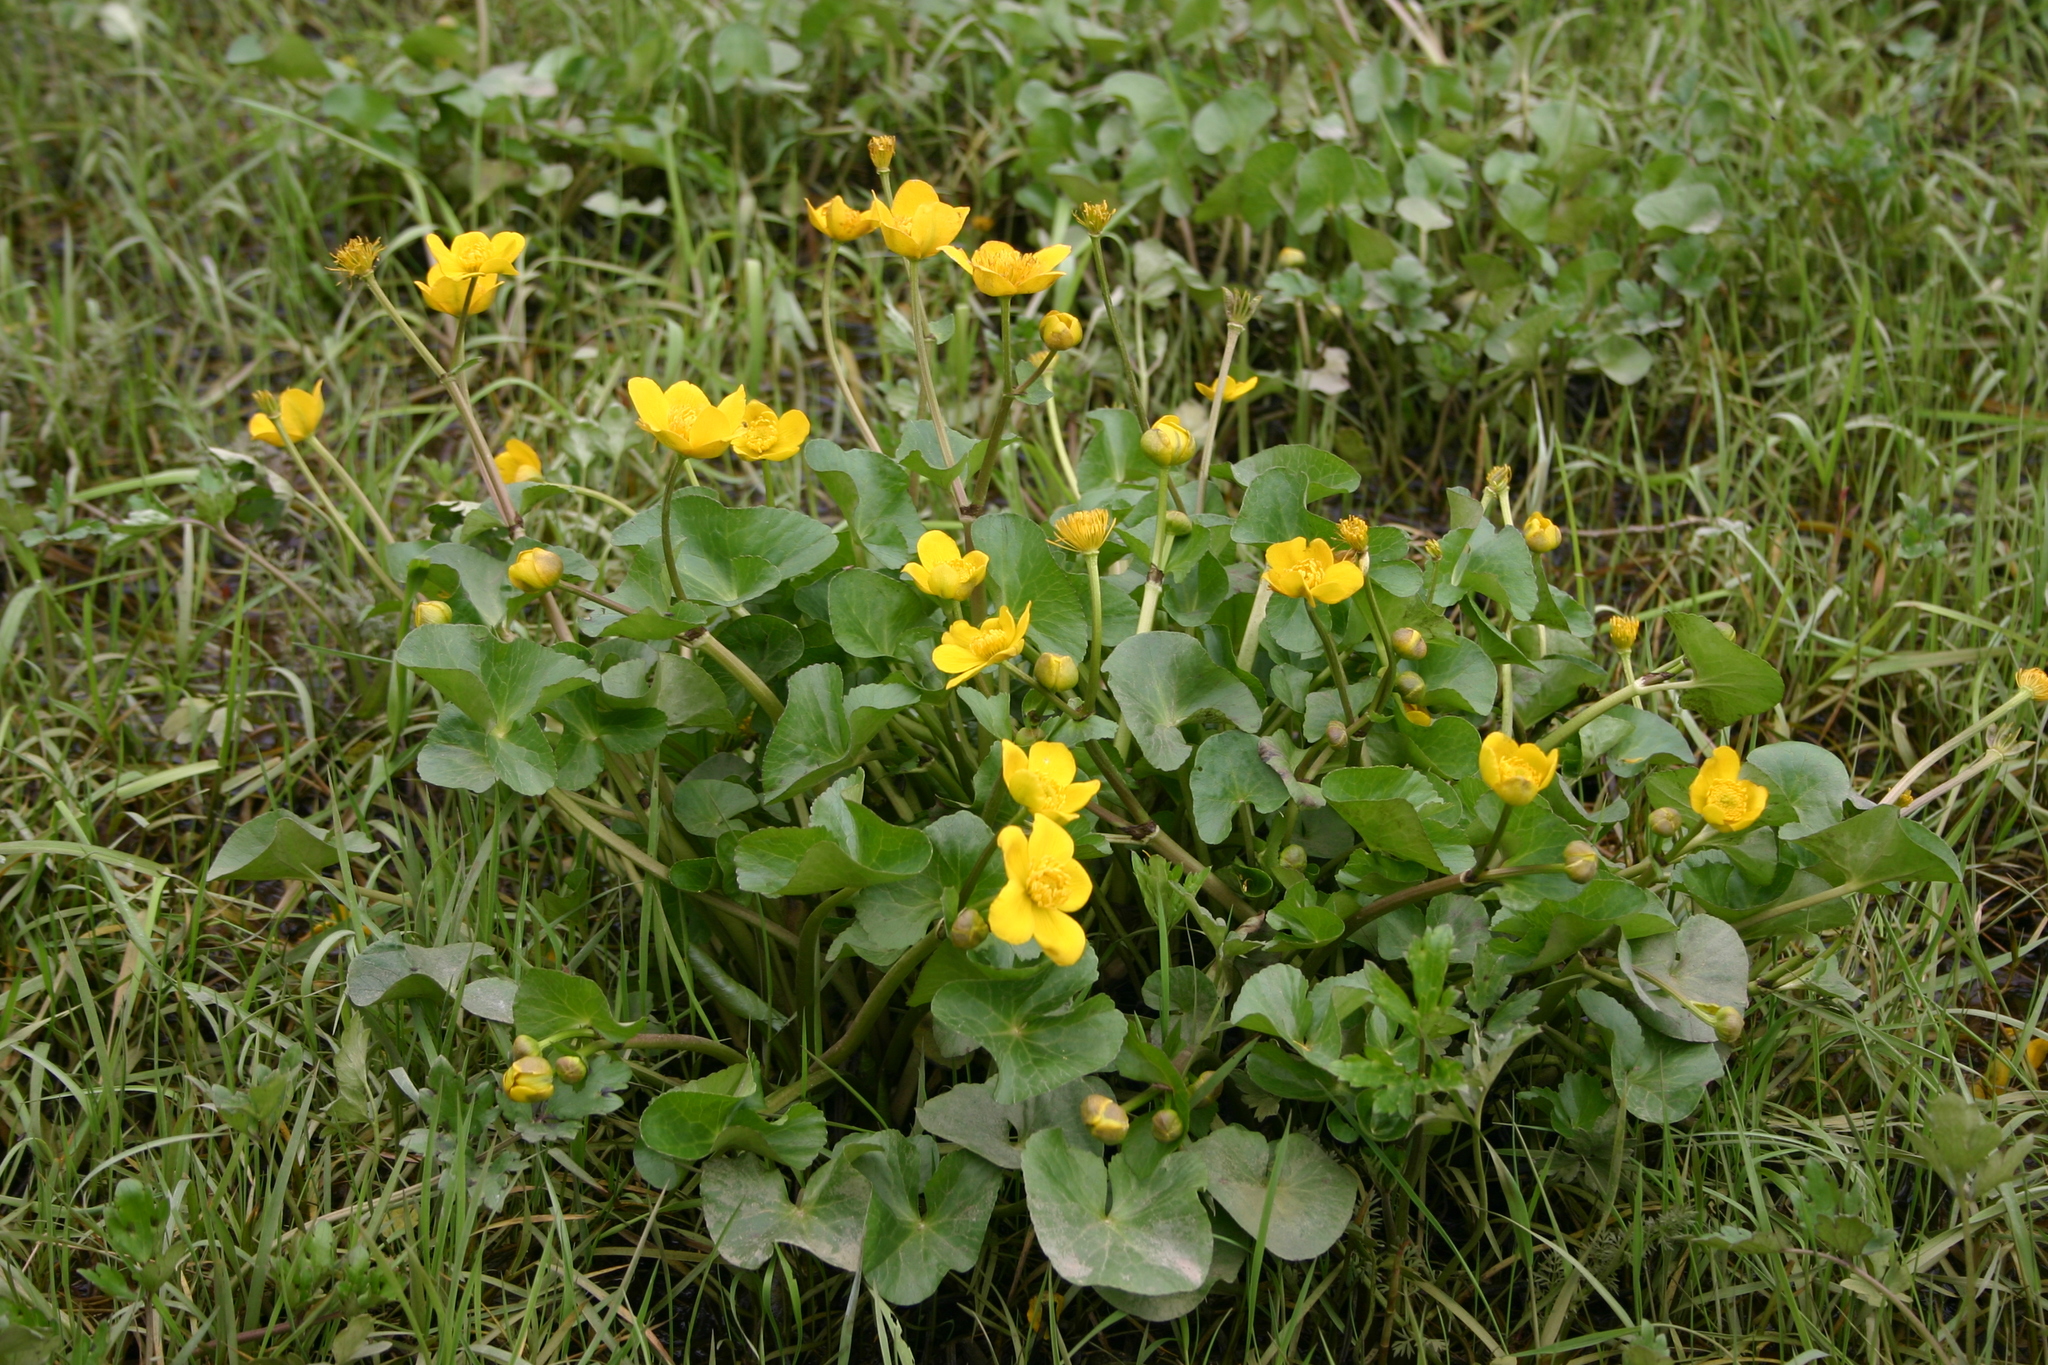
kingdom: Plantae
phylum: Tracheophyta
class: Magnoliopsida
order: Ranunculales
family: Ranunculaceae
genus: Caltha
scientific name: Caltha palustris
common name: Marsh marigold
